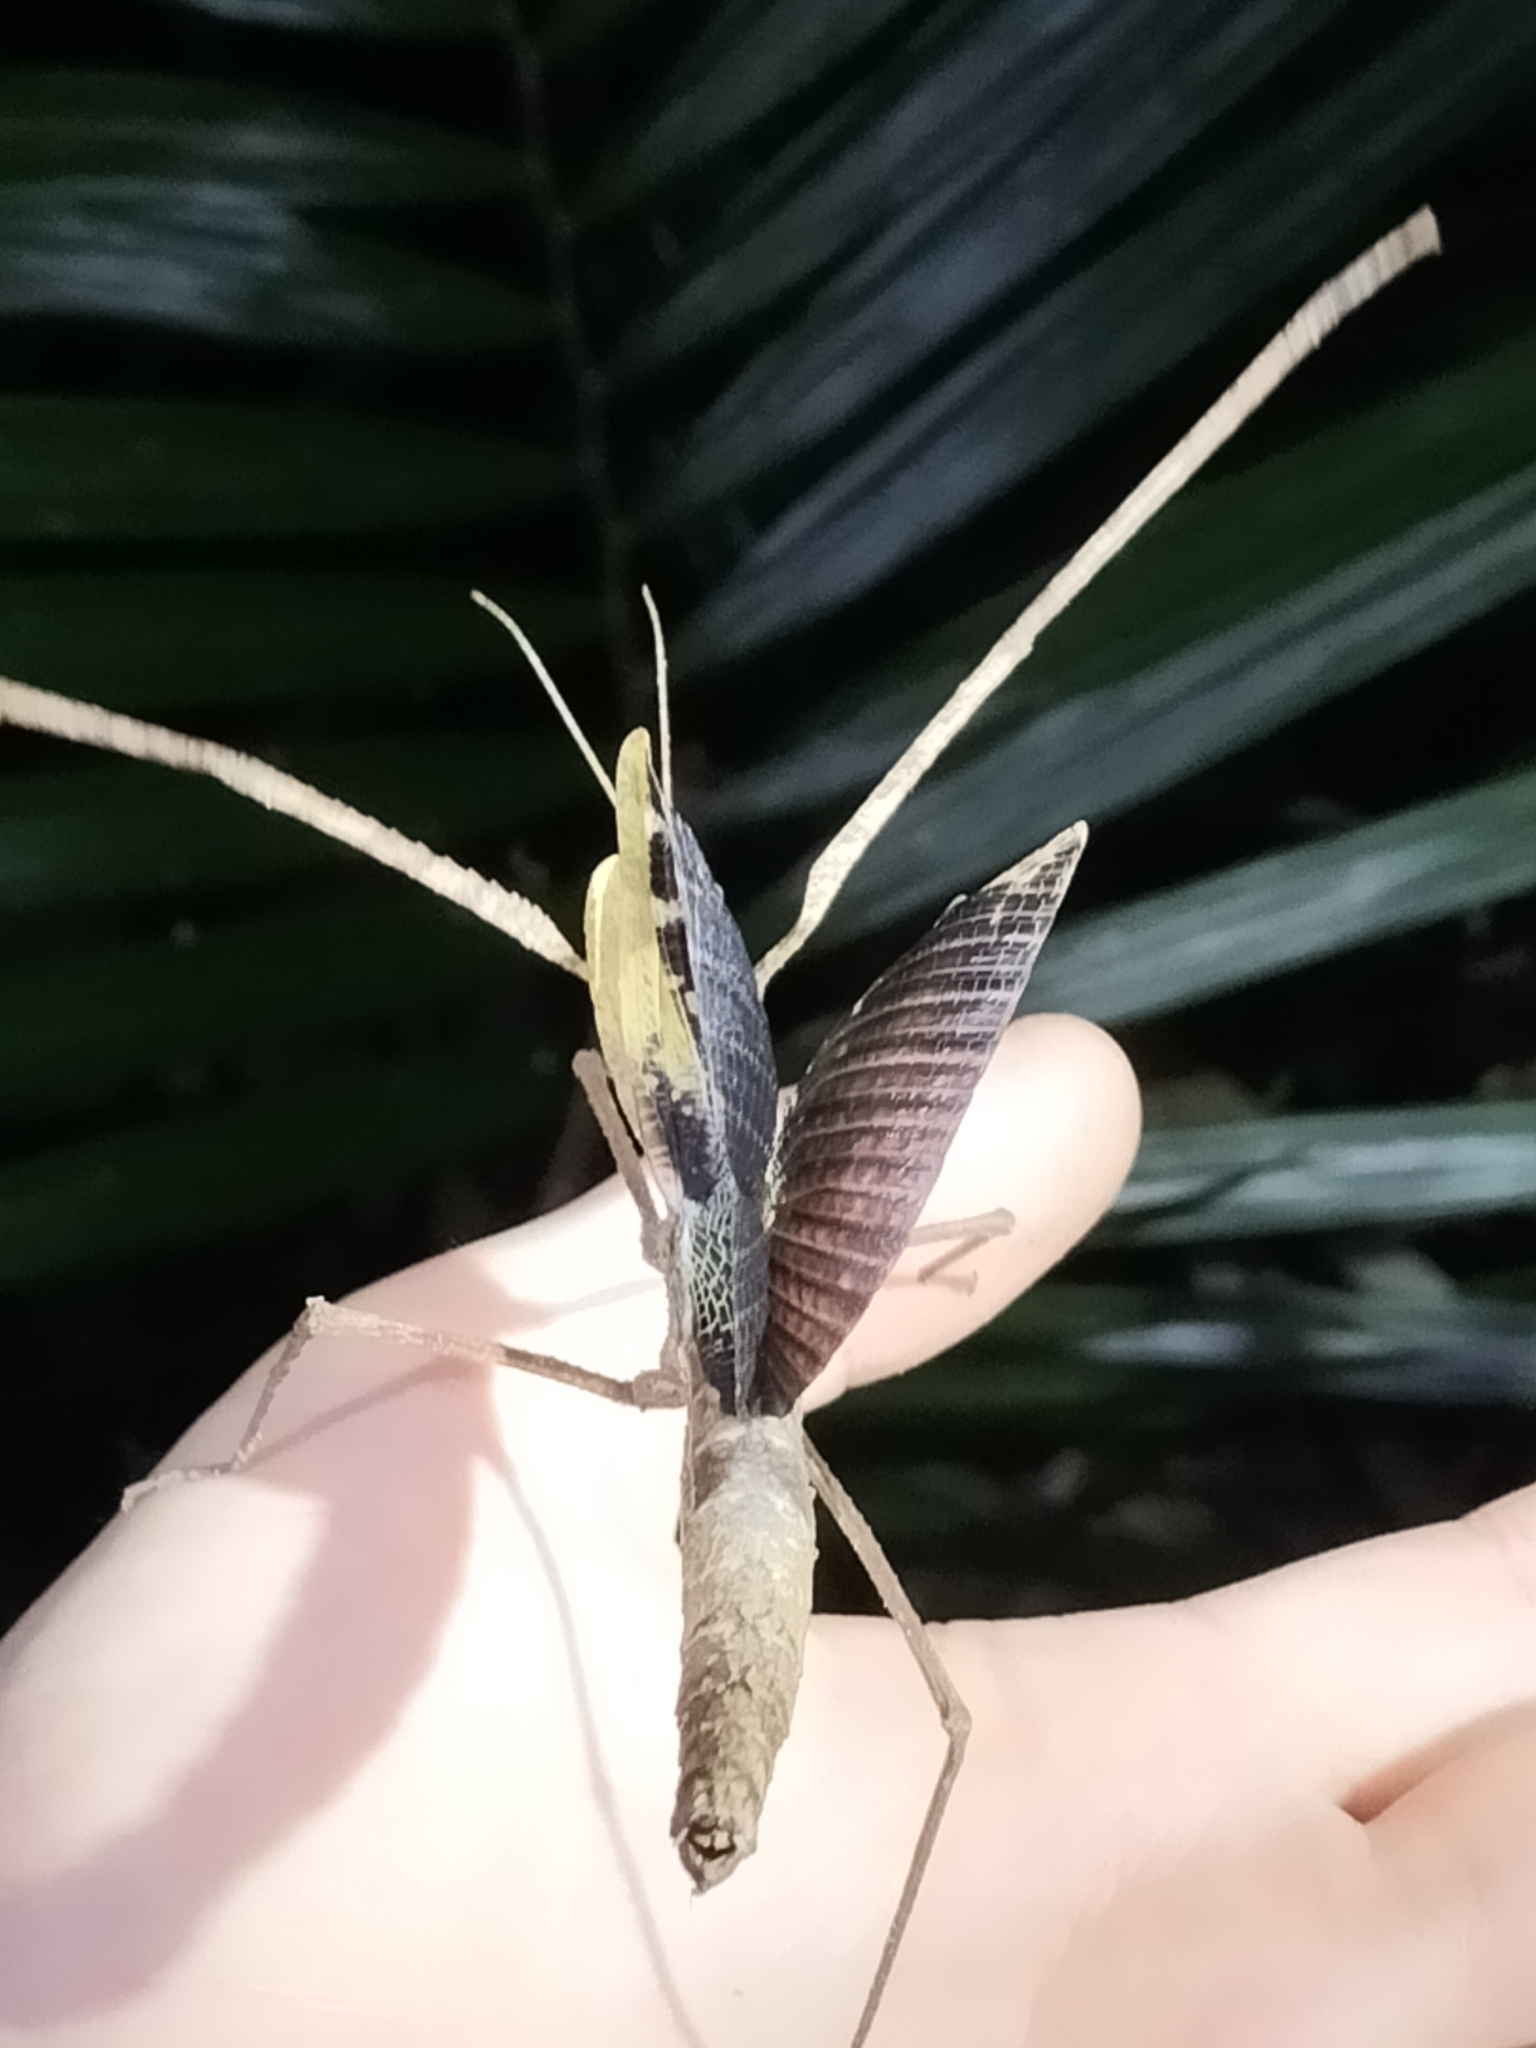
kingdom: Animalia
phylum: Arthropoda
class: Insecta
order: Phasmida
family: Phasmatidae
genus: Onchestus
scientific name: Onchestus rentzi
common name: Rentz's stick-insect
